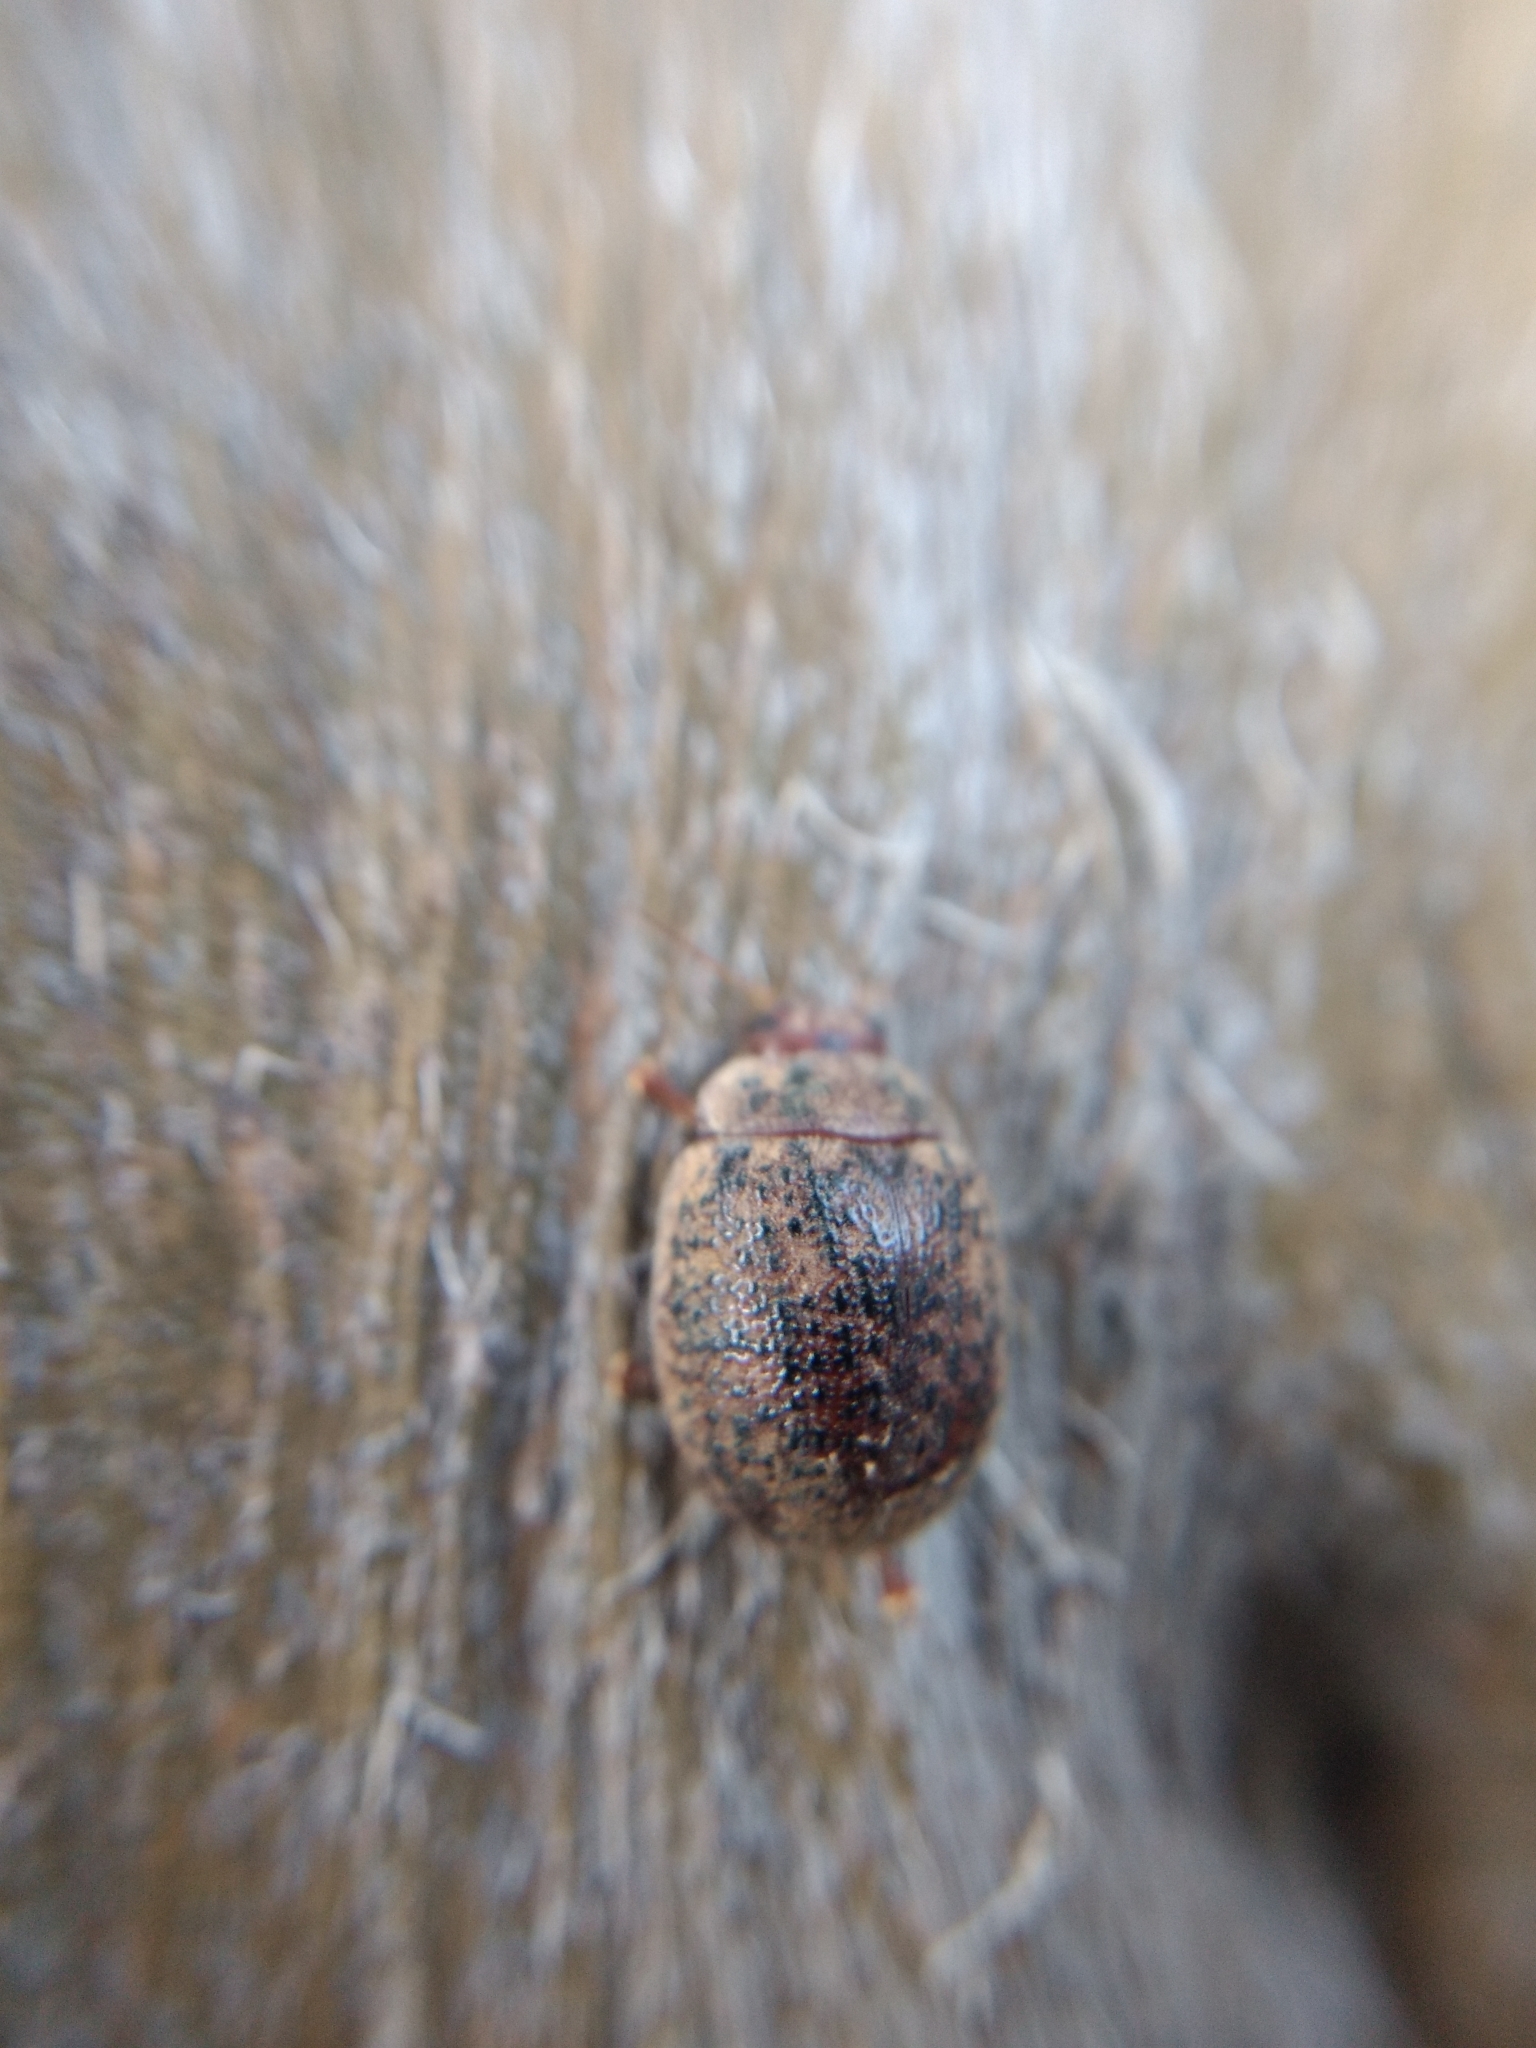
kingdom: Animalia
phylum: Arthropoda
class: Insecta
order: Coleoptera
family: Chrysomelidae
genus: Trachymela
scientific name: Trachymela sloanei
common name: Australian tortoise beetle
